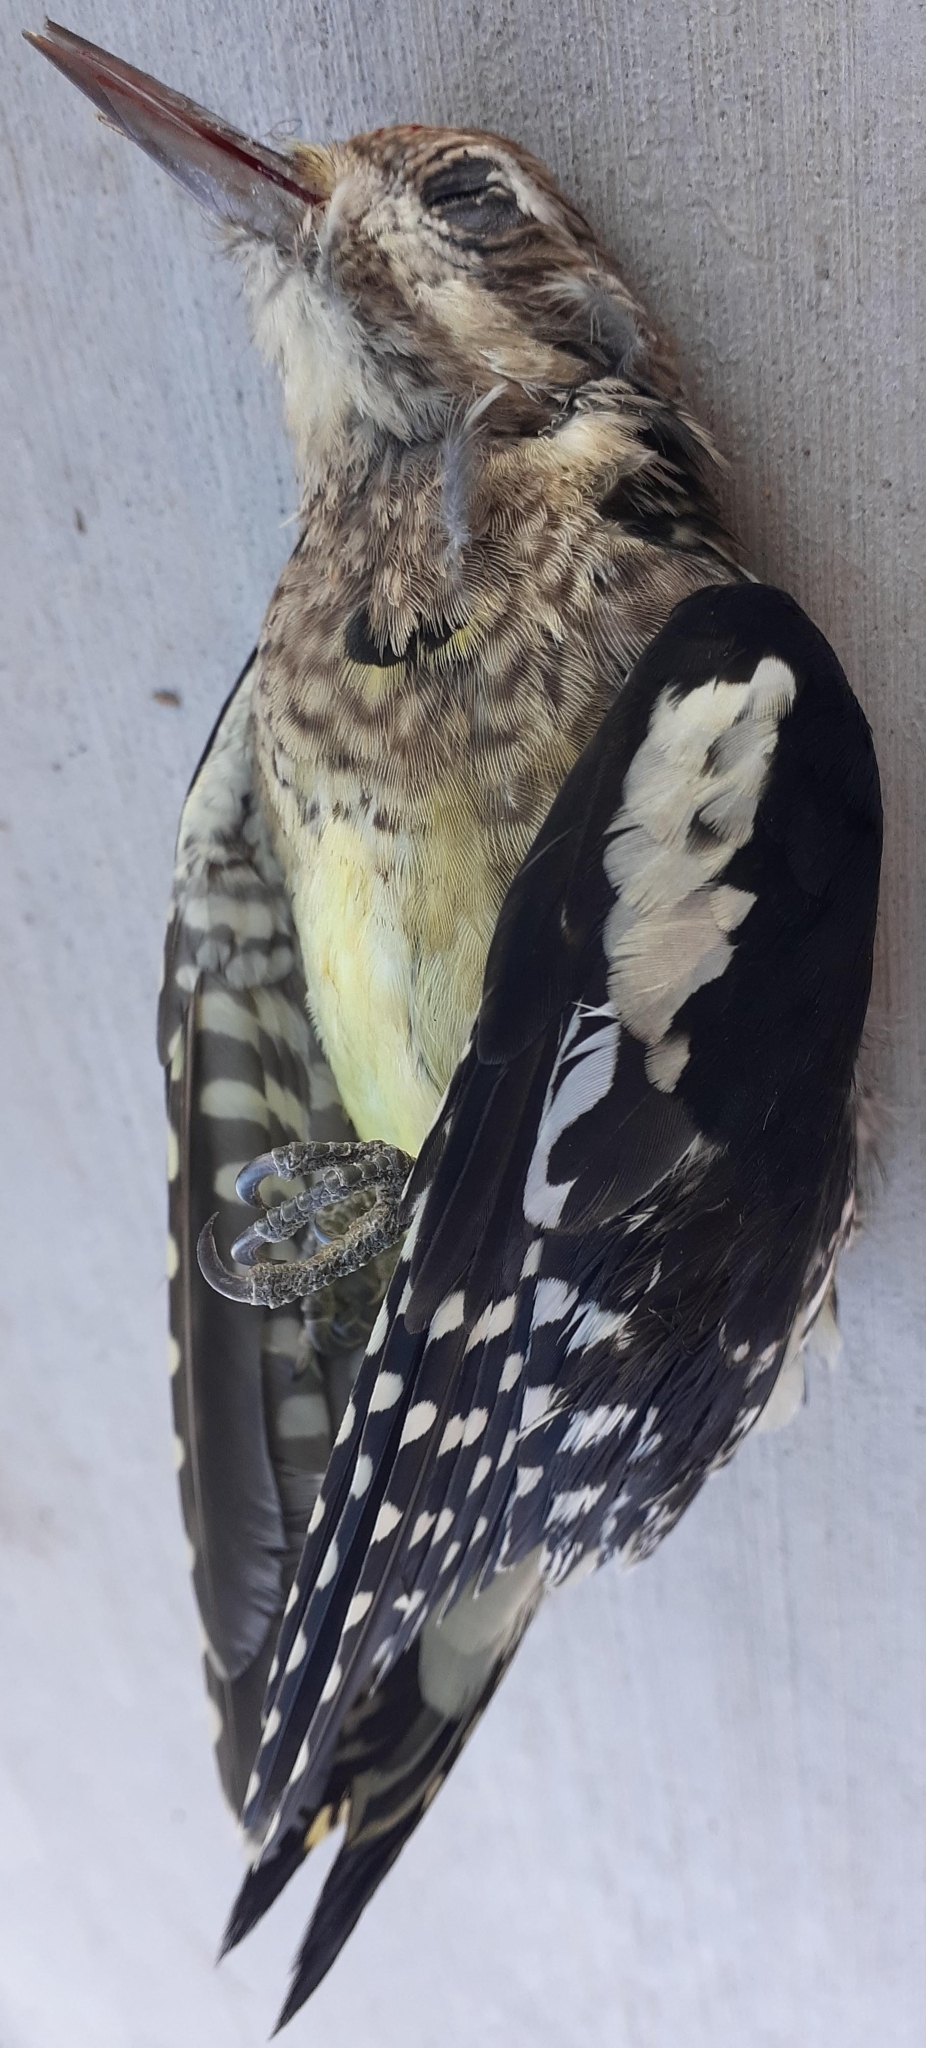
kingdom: Animalia
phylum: Chordata
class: Aves
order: Piciformes
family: Picidae
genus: Sphyrapicus
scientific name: Sphyrapicus varius
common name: Yellow-bellied sapsucker
